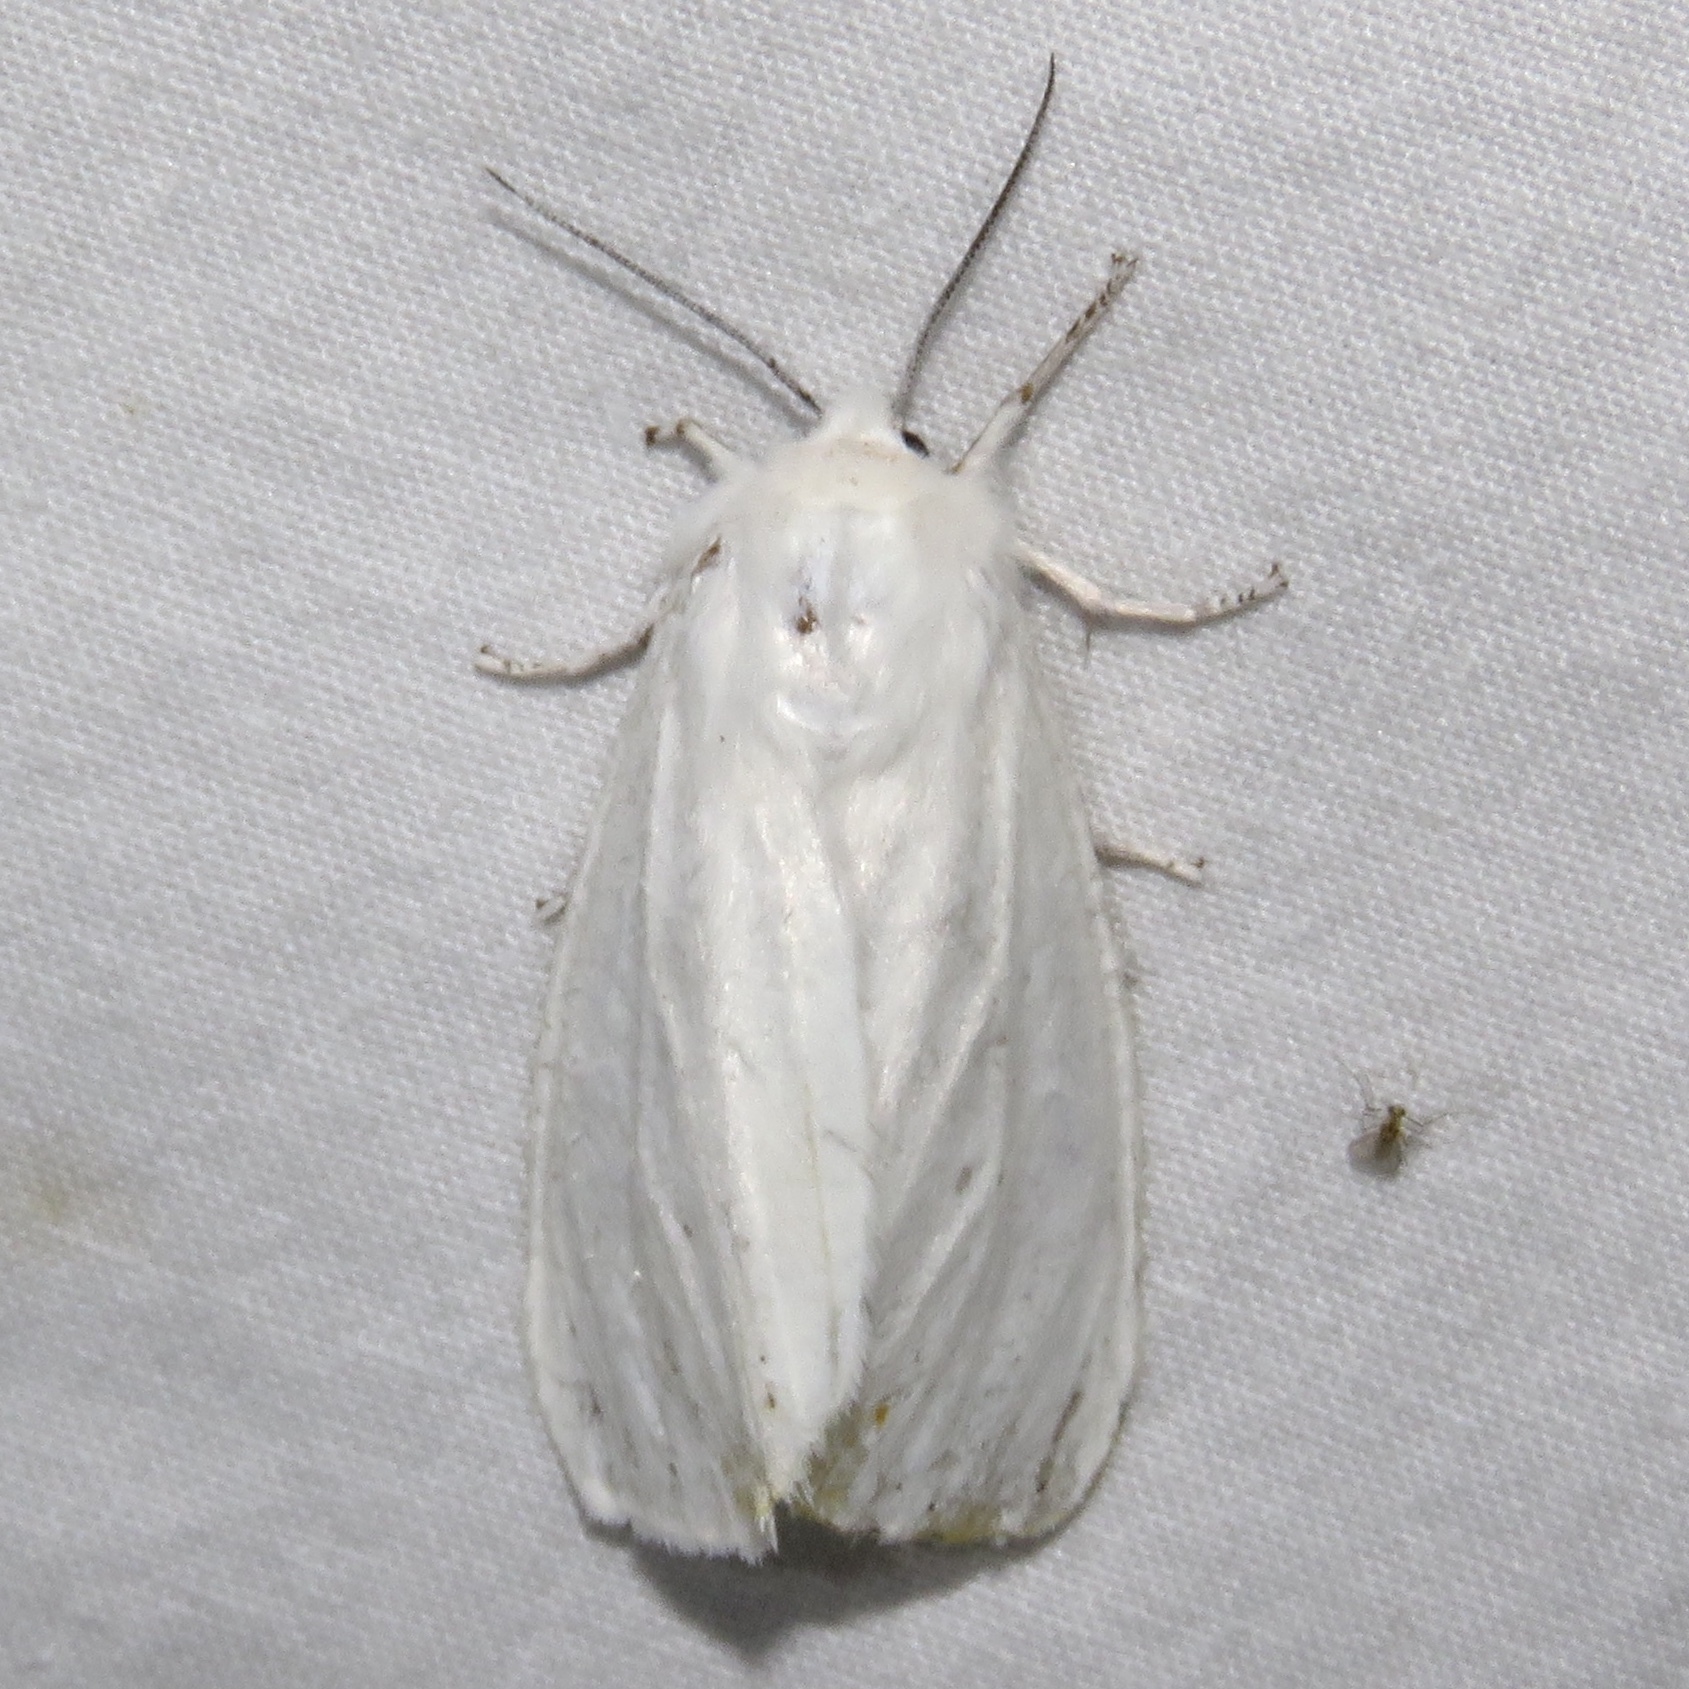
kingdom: Animalia
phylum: Arthropoda
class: Insecta
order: Lepidoptera
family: Erebidae
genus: Spilosoma
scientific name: Spilosoma virginica
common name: Virginia tiger moth
